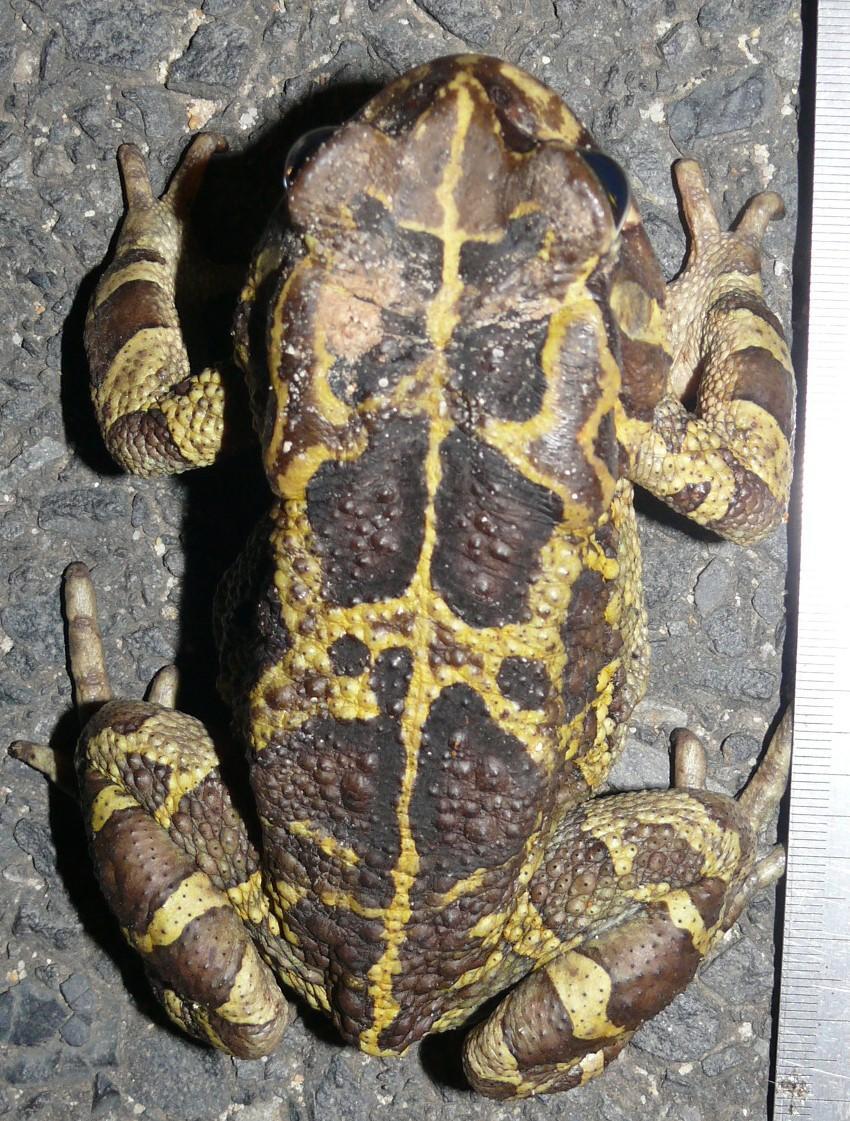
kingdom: Animalia
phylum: Chordata
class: Amphibia
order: Anura
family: Bufonidae
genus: Sclerophrys
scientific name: Sclerophrys pantherina
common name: Panther toad
